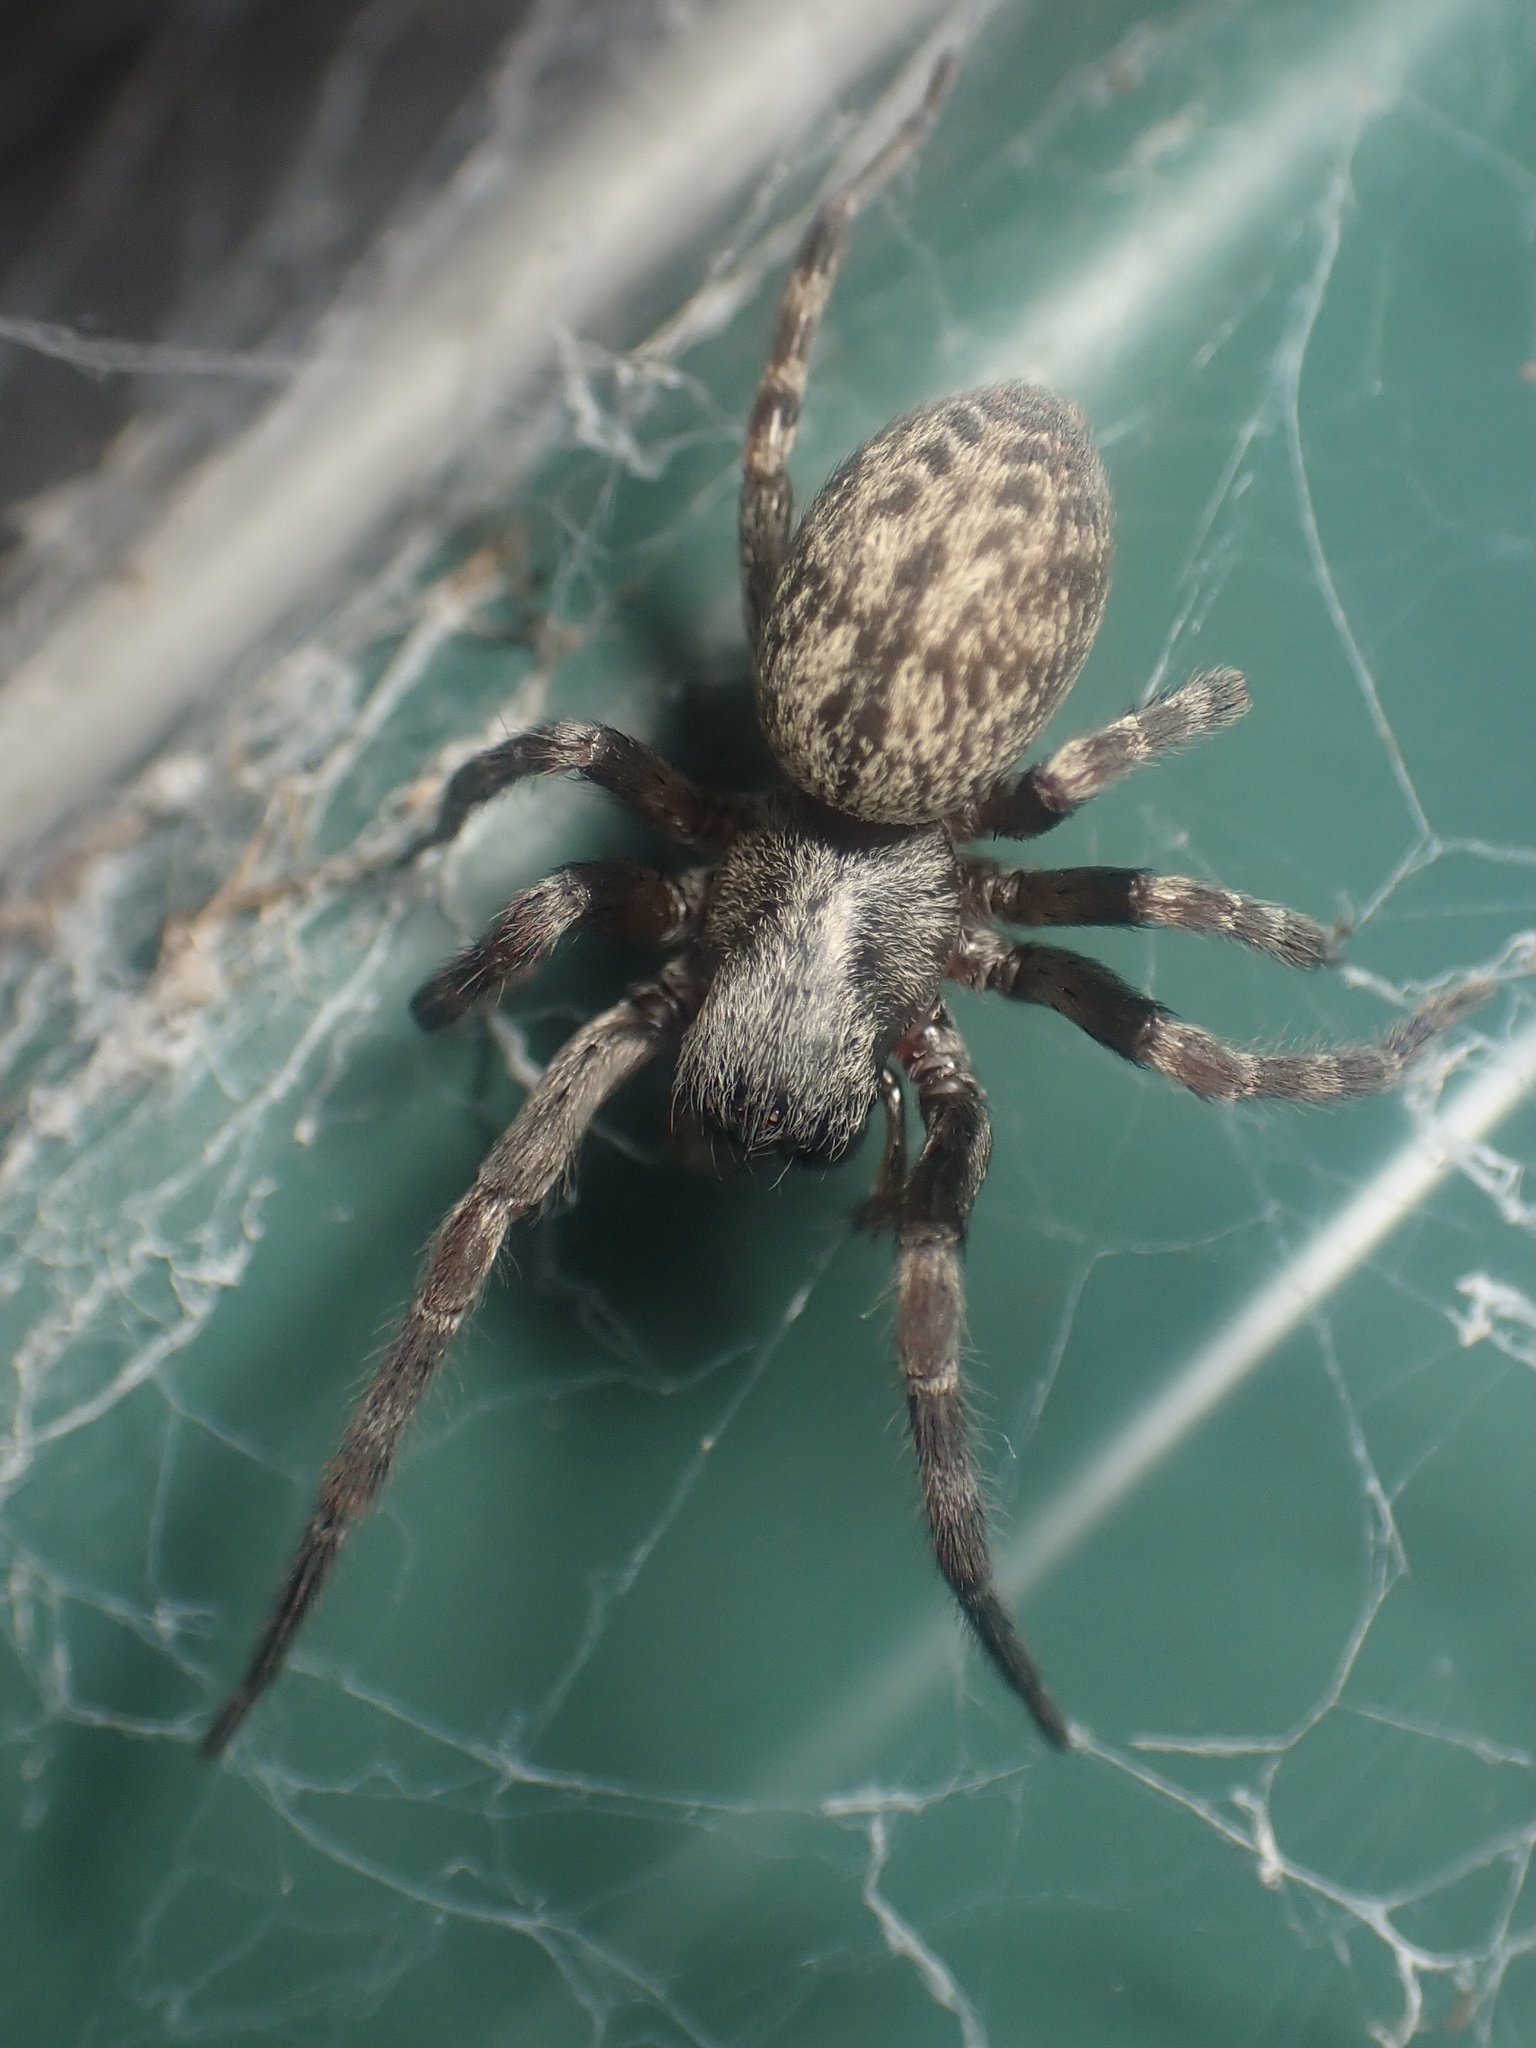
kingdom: Animalia
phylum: Arthropoda
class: Arachnida
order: Araneae
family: Desidae
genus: Badumna
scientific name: Badumna longinqua
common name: Gray house spider
